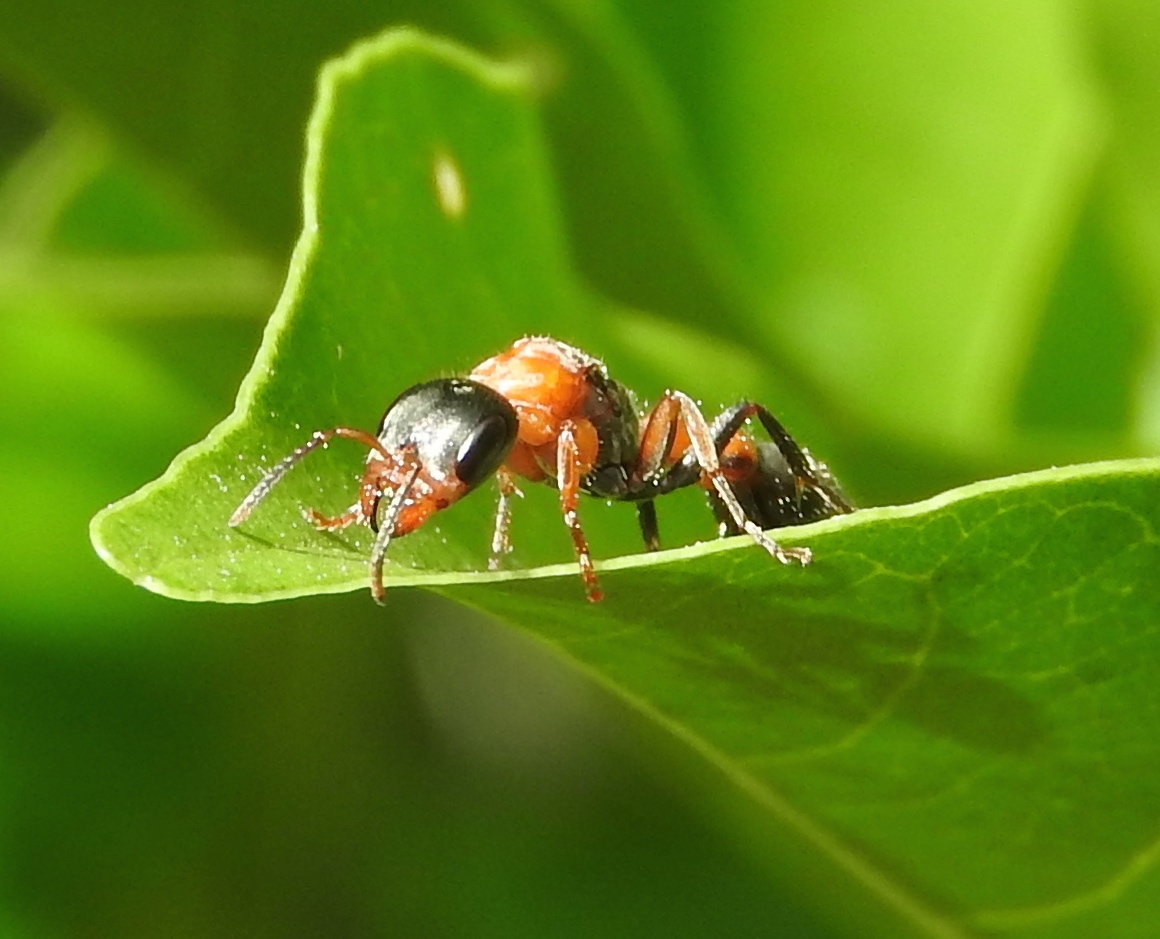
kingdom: Animalia
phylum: Arthropoda
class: Insecta
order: Hymenoptera
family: Formicidae
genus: Pseudomyrmex
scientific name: Pseudomyrmex gracilis
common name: Graceful twig ant
